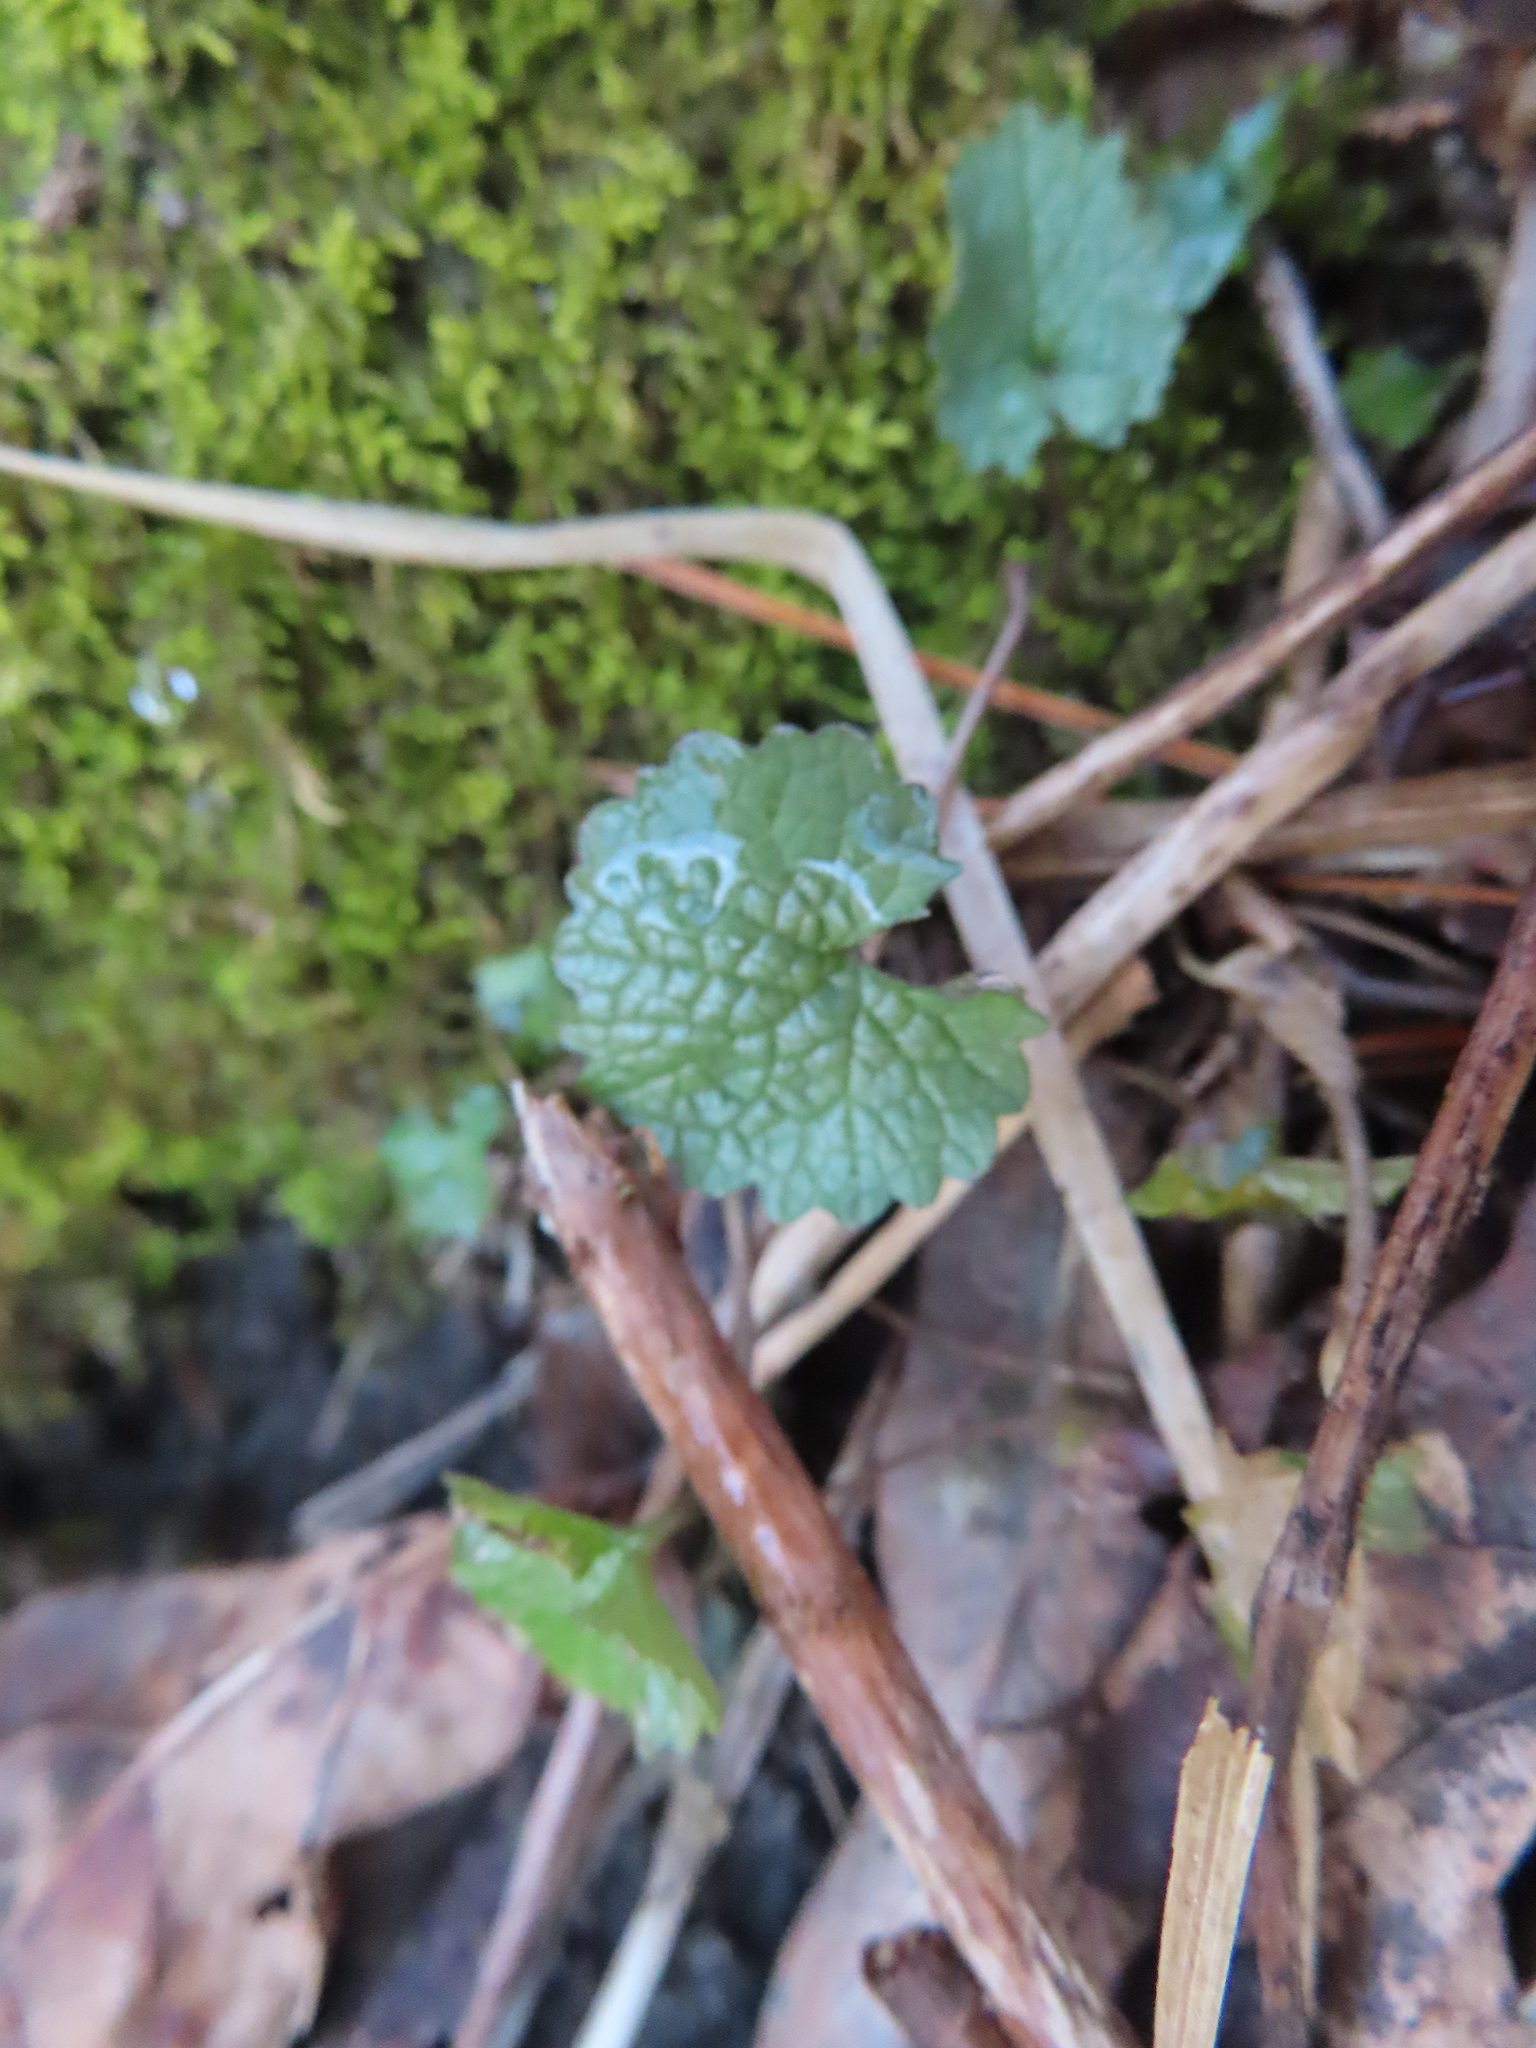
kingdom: Plantae
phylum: Tracheophyta
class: Magnoliopsida
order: Brassicales
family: Brassicaceae
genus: Alliaria
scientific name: Alliaria petiolata
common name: Garlic mustard
